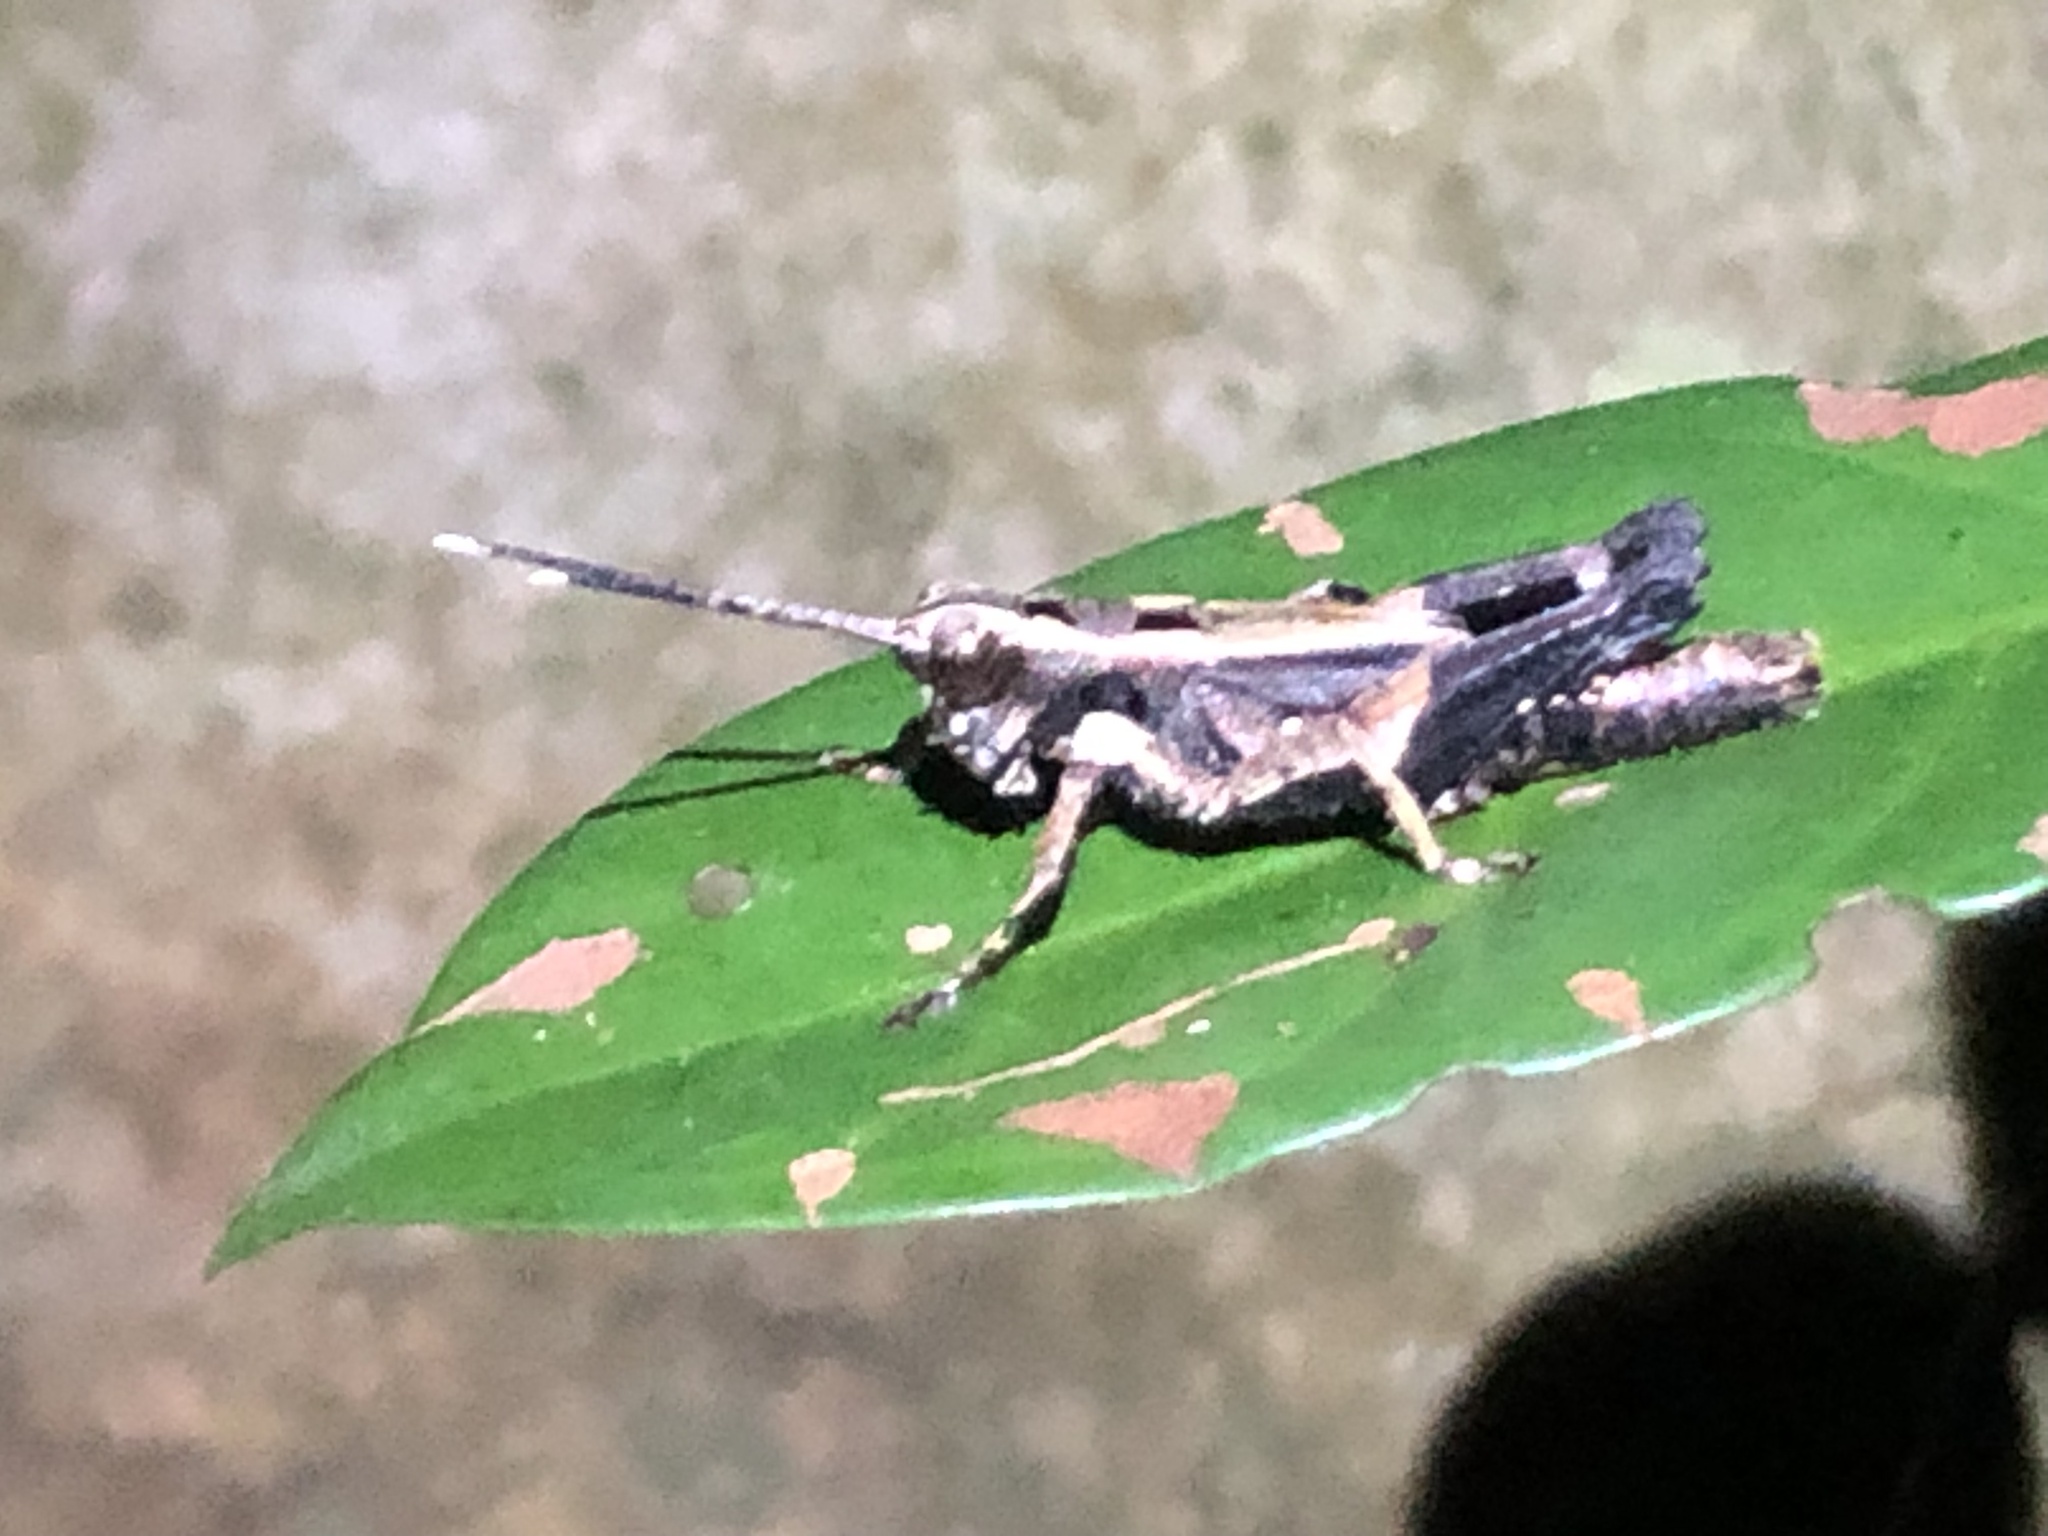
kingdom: Animalia
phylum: Arthropoda
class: Insecta
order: Orthoptera
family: Acrididae
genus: Traulia
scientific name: Traulia ornata
